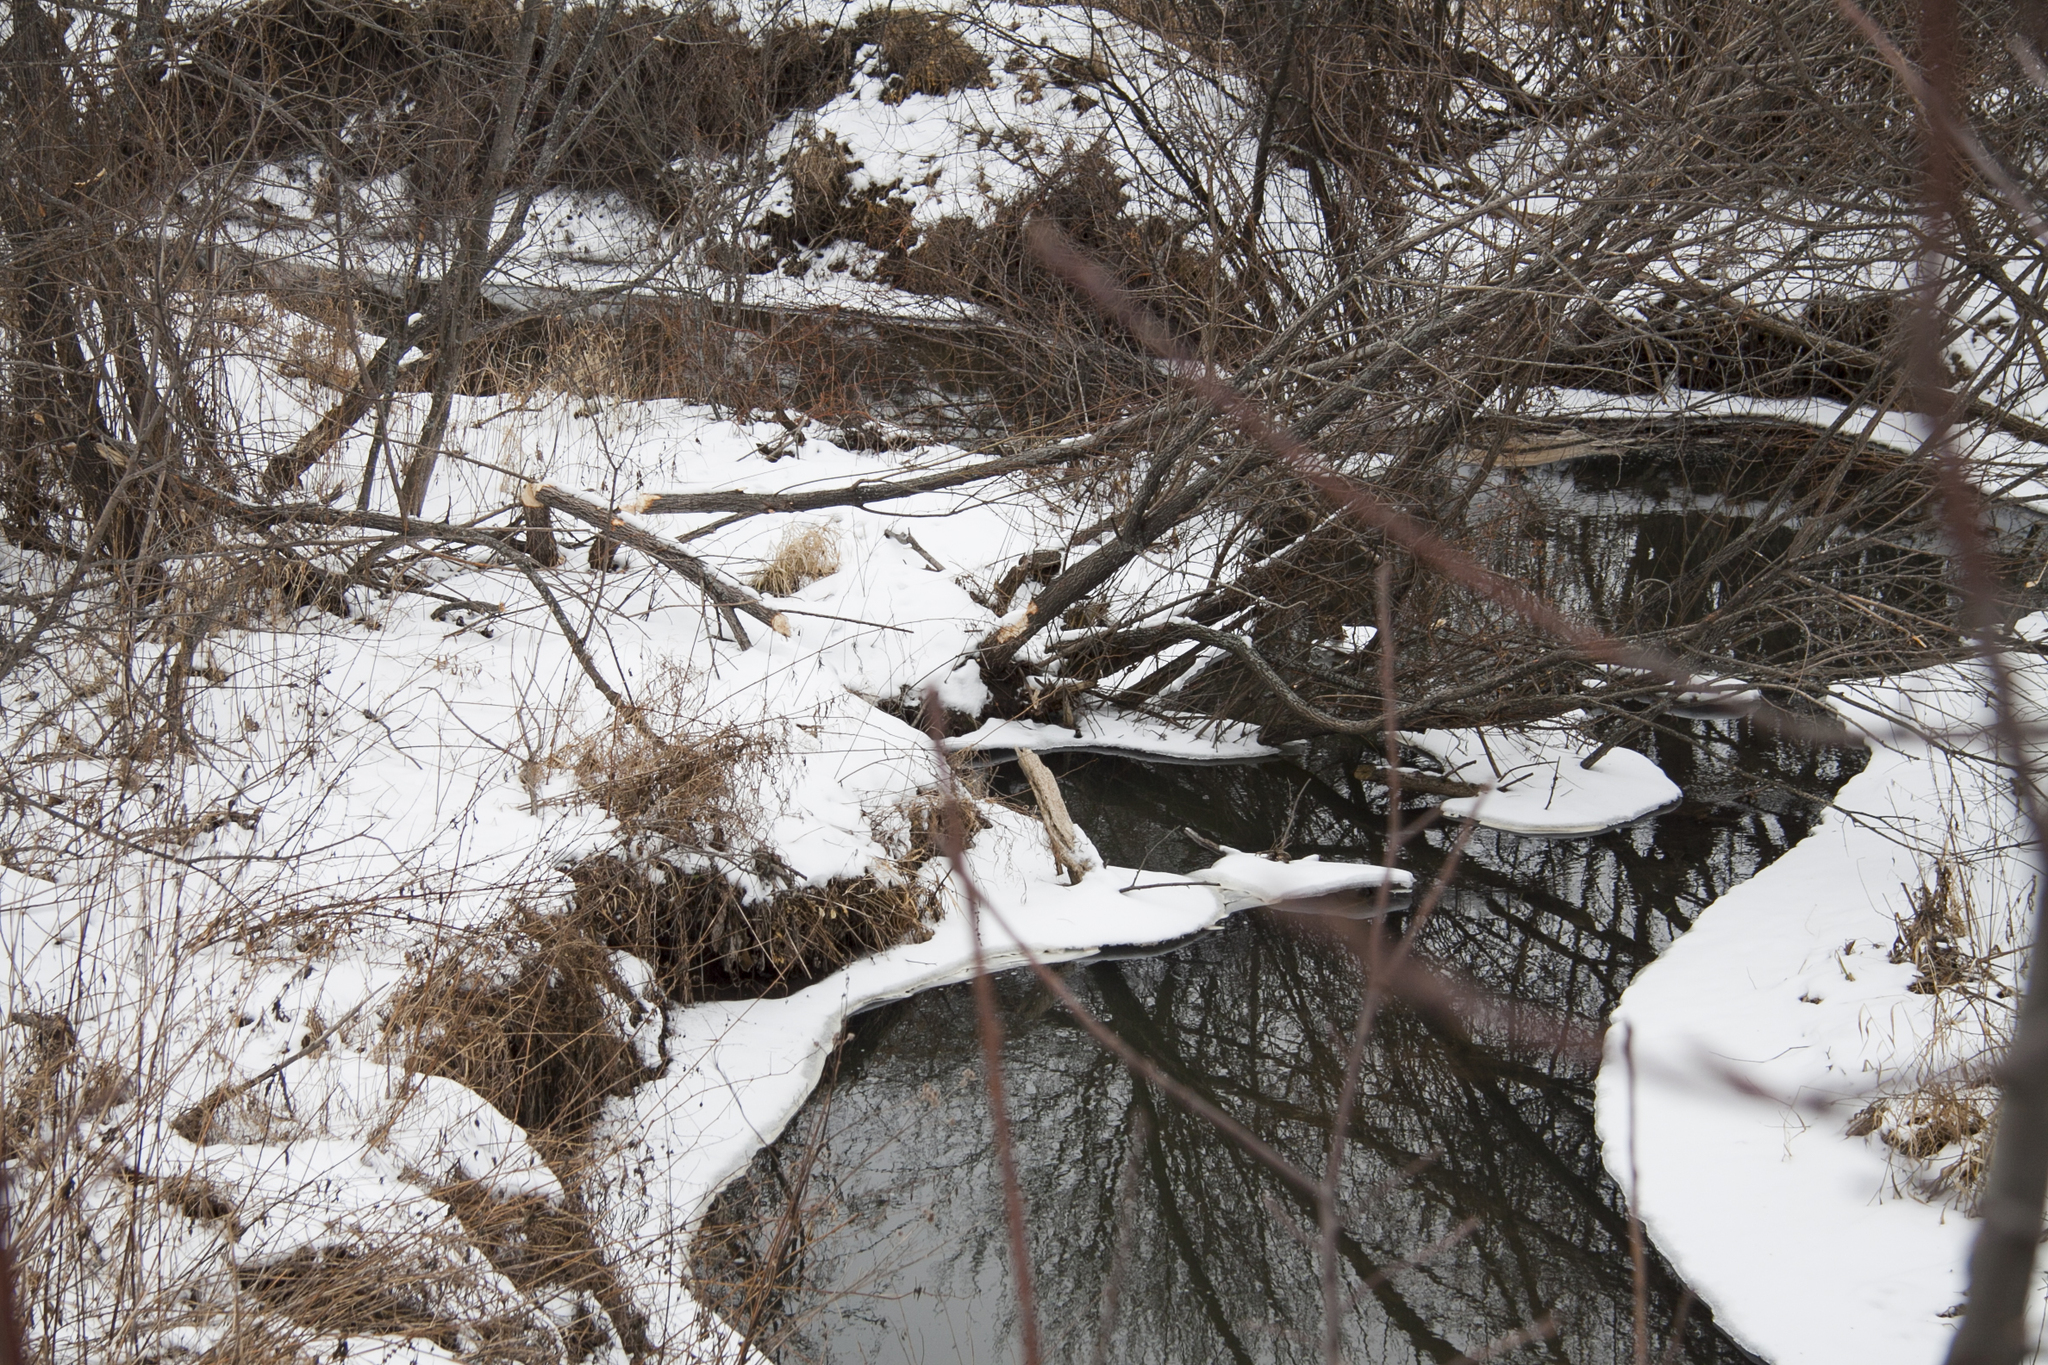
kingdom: Animalia
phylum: Chordata
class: Mammalia
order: Rodentia
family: Castoridae
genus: Castor
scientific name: Castor fiber
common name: Eurasian beaver
